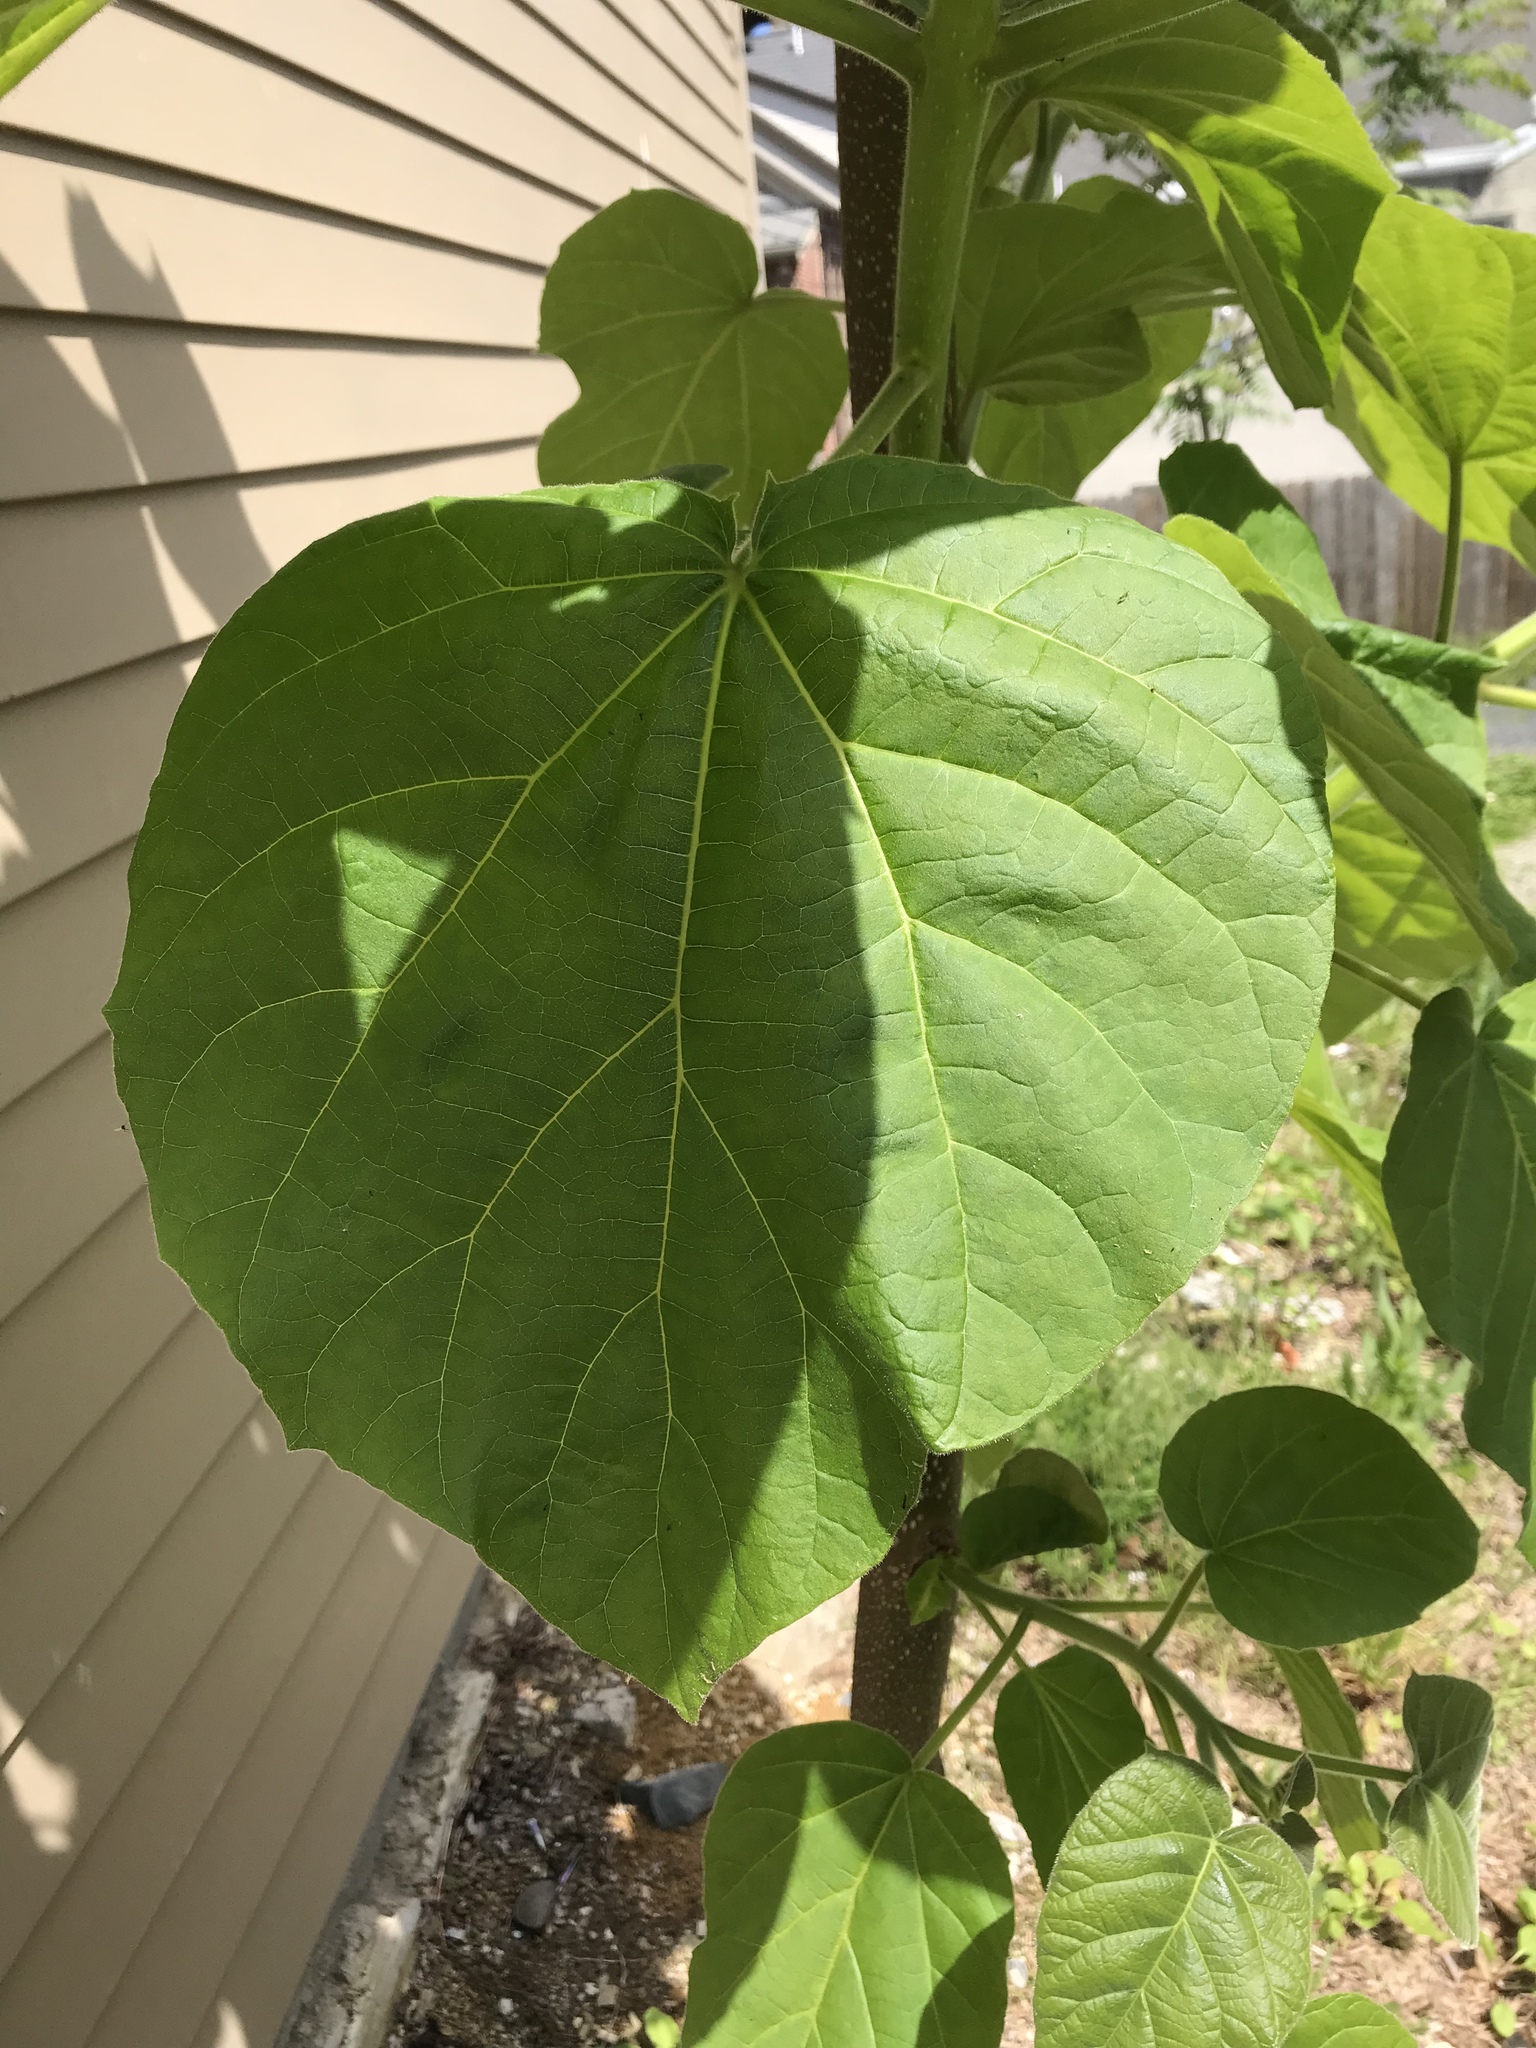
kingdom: Plantae
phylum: Tracheophyta
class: Magnoliopsida
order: Lamiales
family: Paulowniaceae
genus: Paulownia
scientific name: Paulownia tomentosa
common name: Foxglove-tree
